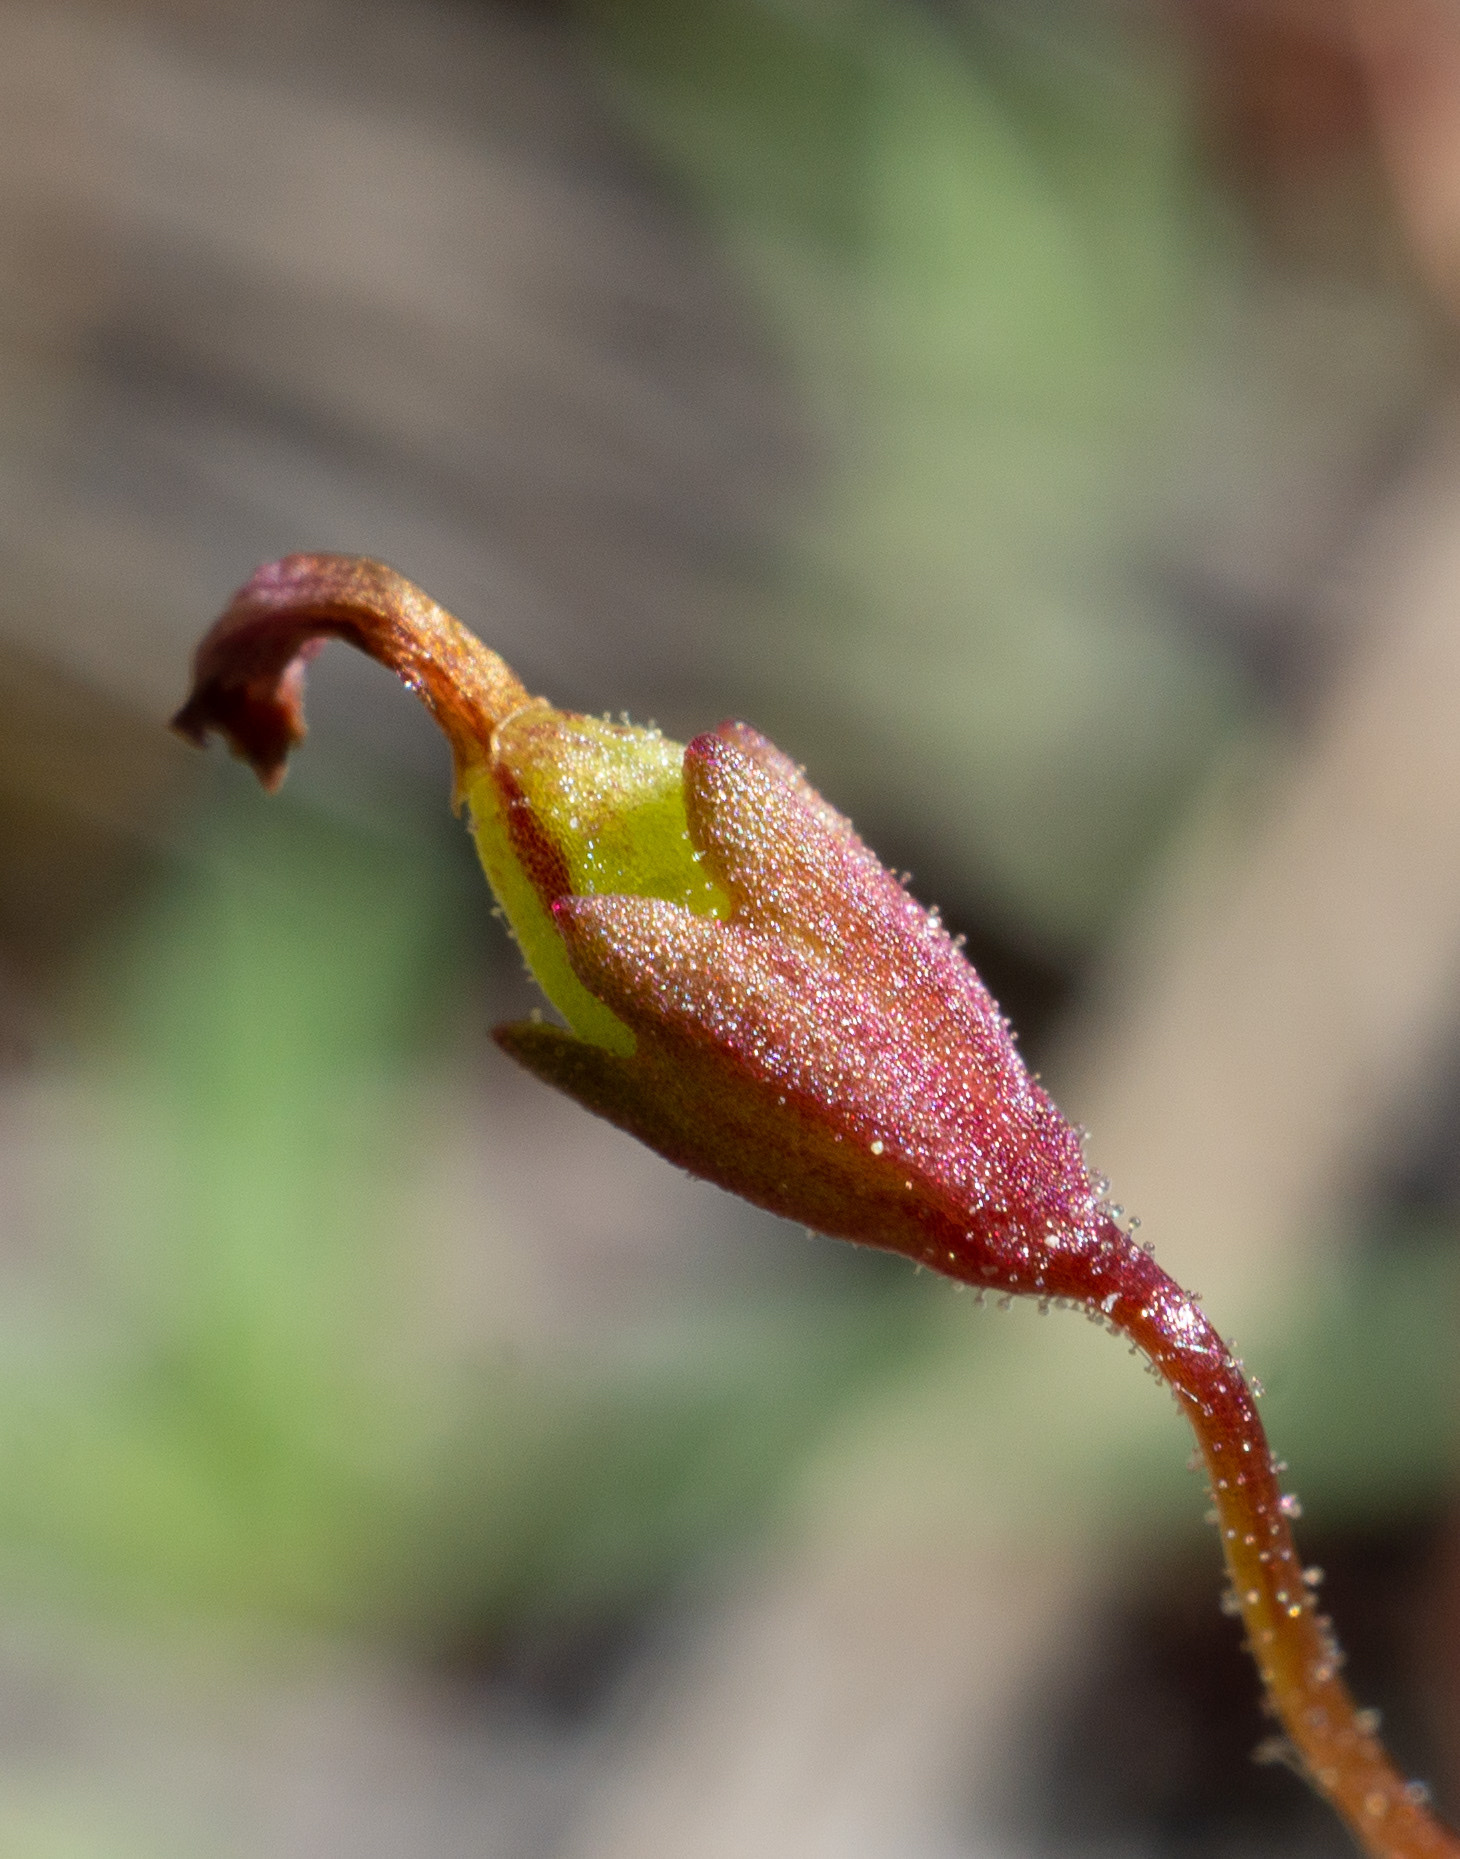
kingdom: Plantae
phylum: Tracheophyta
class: Magnoliopsida
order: Lamiales
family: Phrymaceae
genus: Erythranthe
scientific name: Erythranthe exigua
